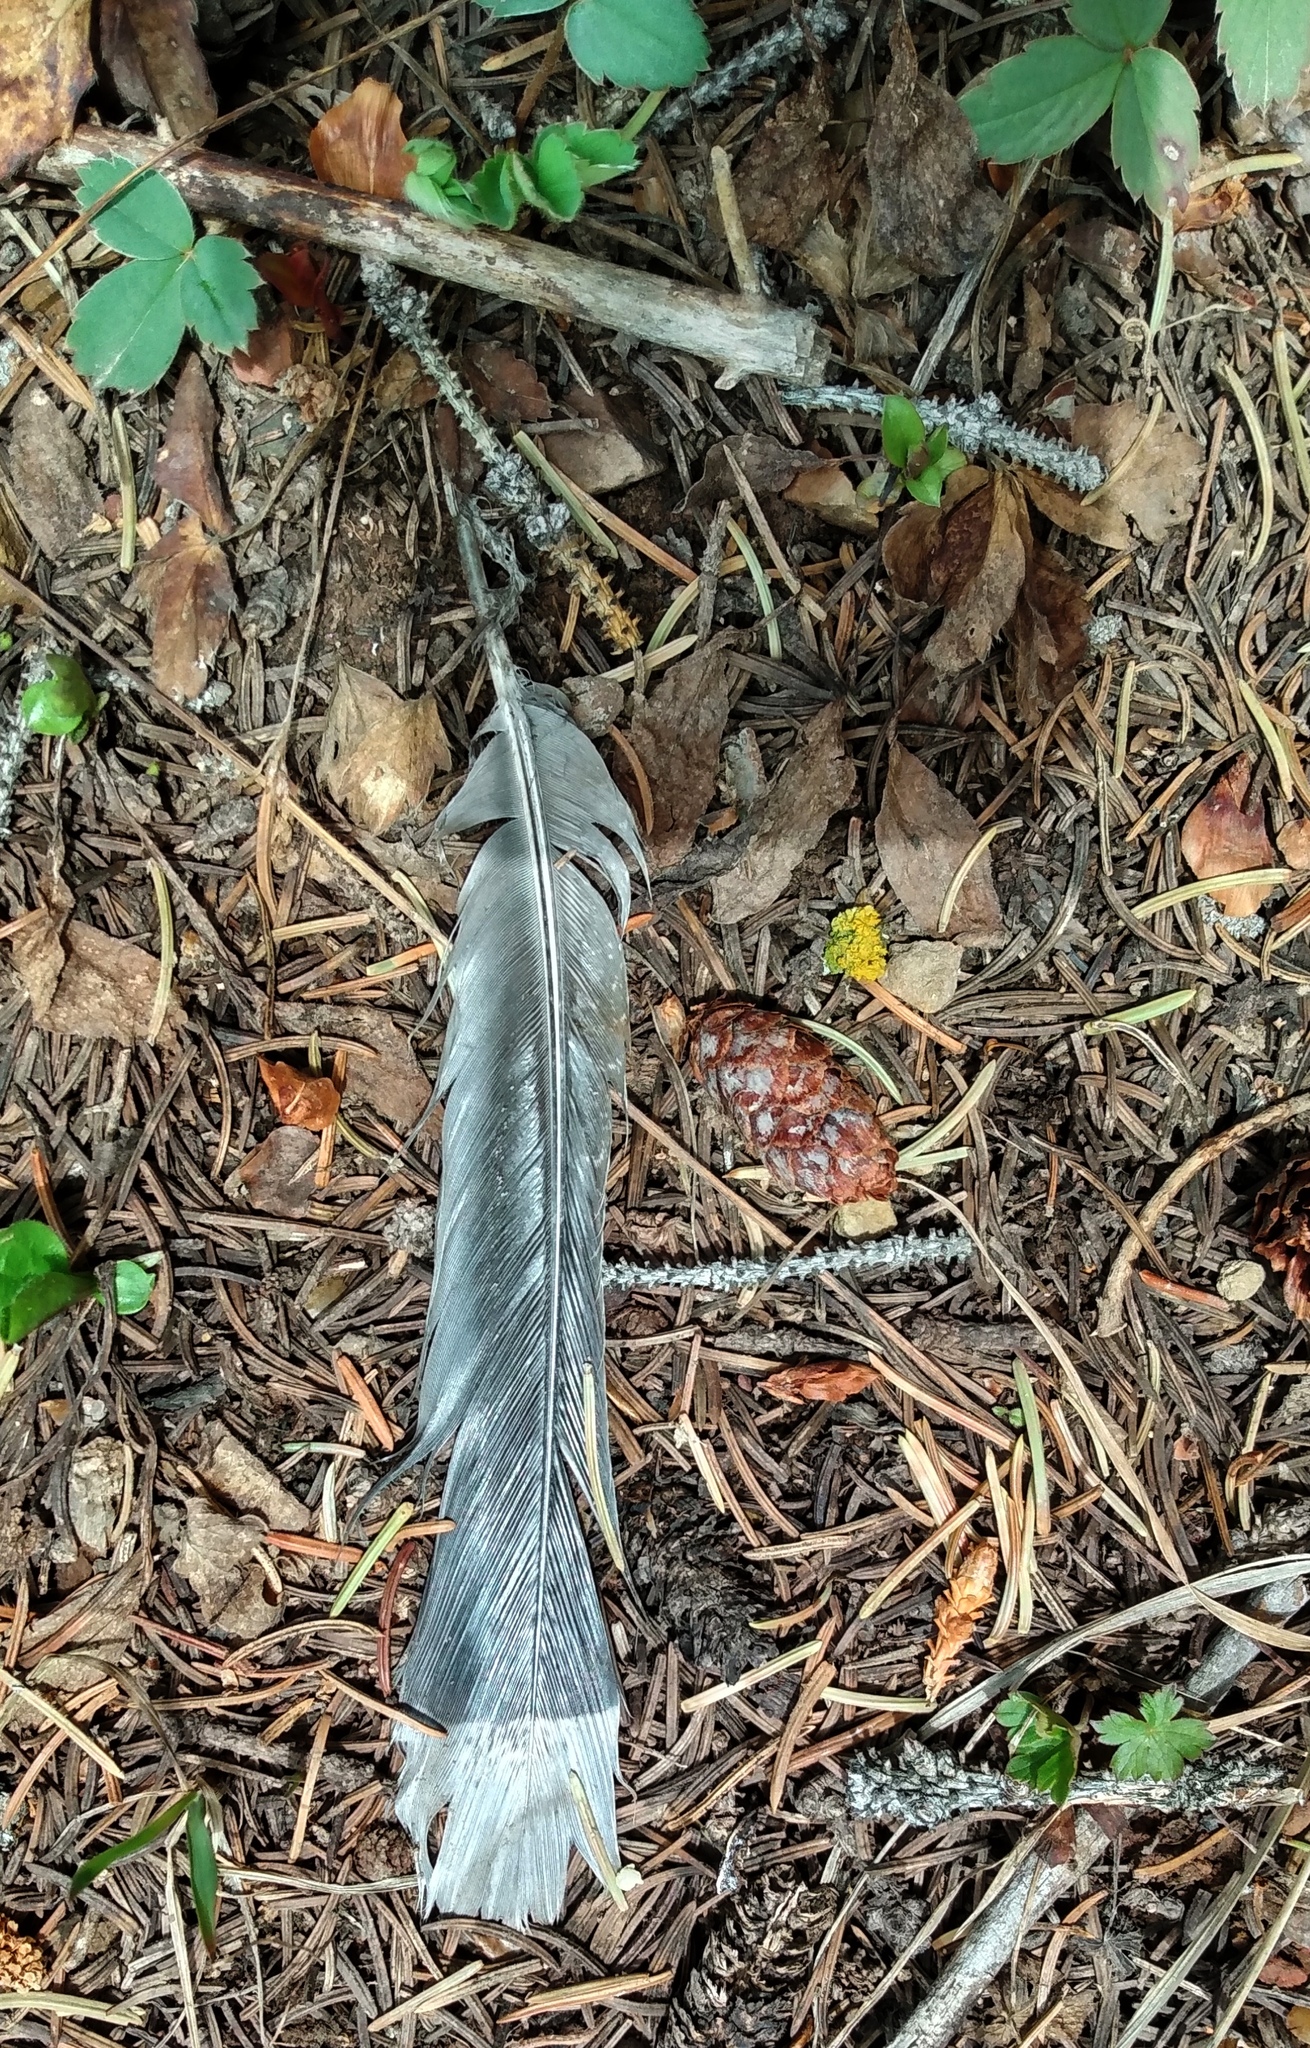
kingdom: Animalia
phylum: Chordata
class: Aves
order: Galliformes
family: Phasianidae
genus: Dendragapus
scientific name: Dendragapus obscurus
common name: Dusky grouse
